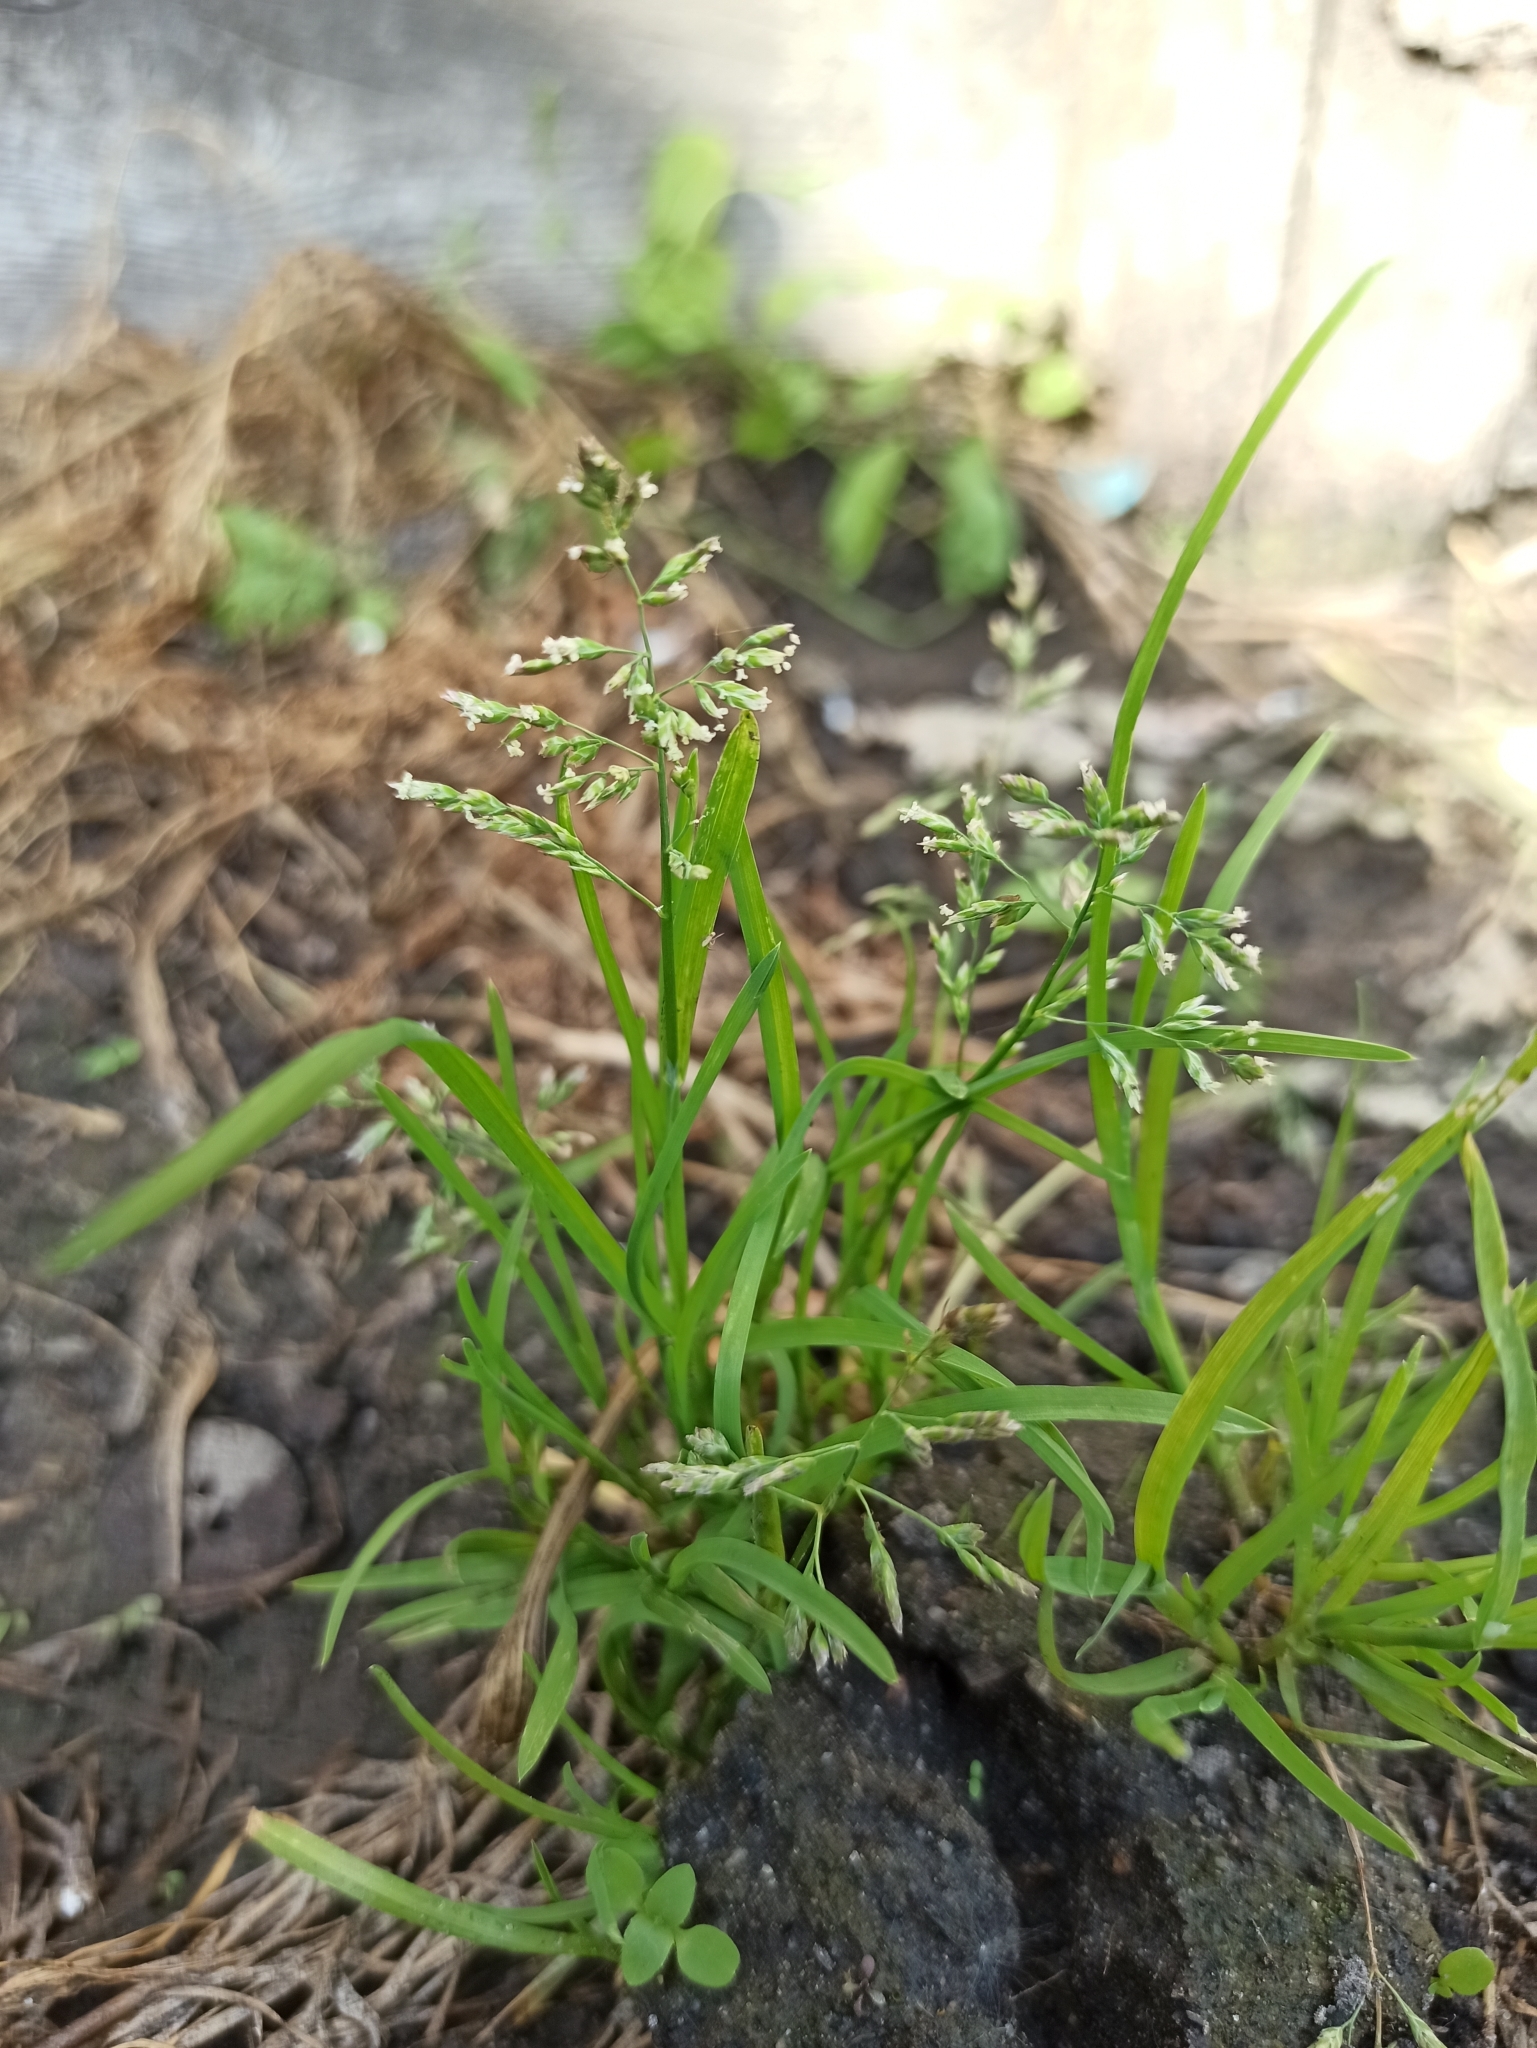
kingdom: Plantae
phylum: Tracheophyta
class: Liliopsida
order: Poales
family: Poaceae
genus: Poa
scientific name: Poa annua
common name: Annual bluegrass
